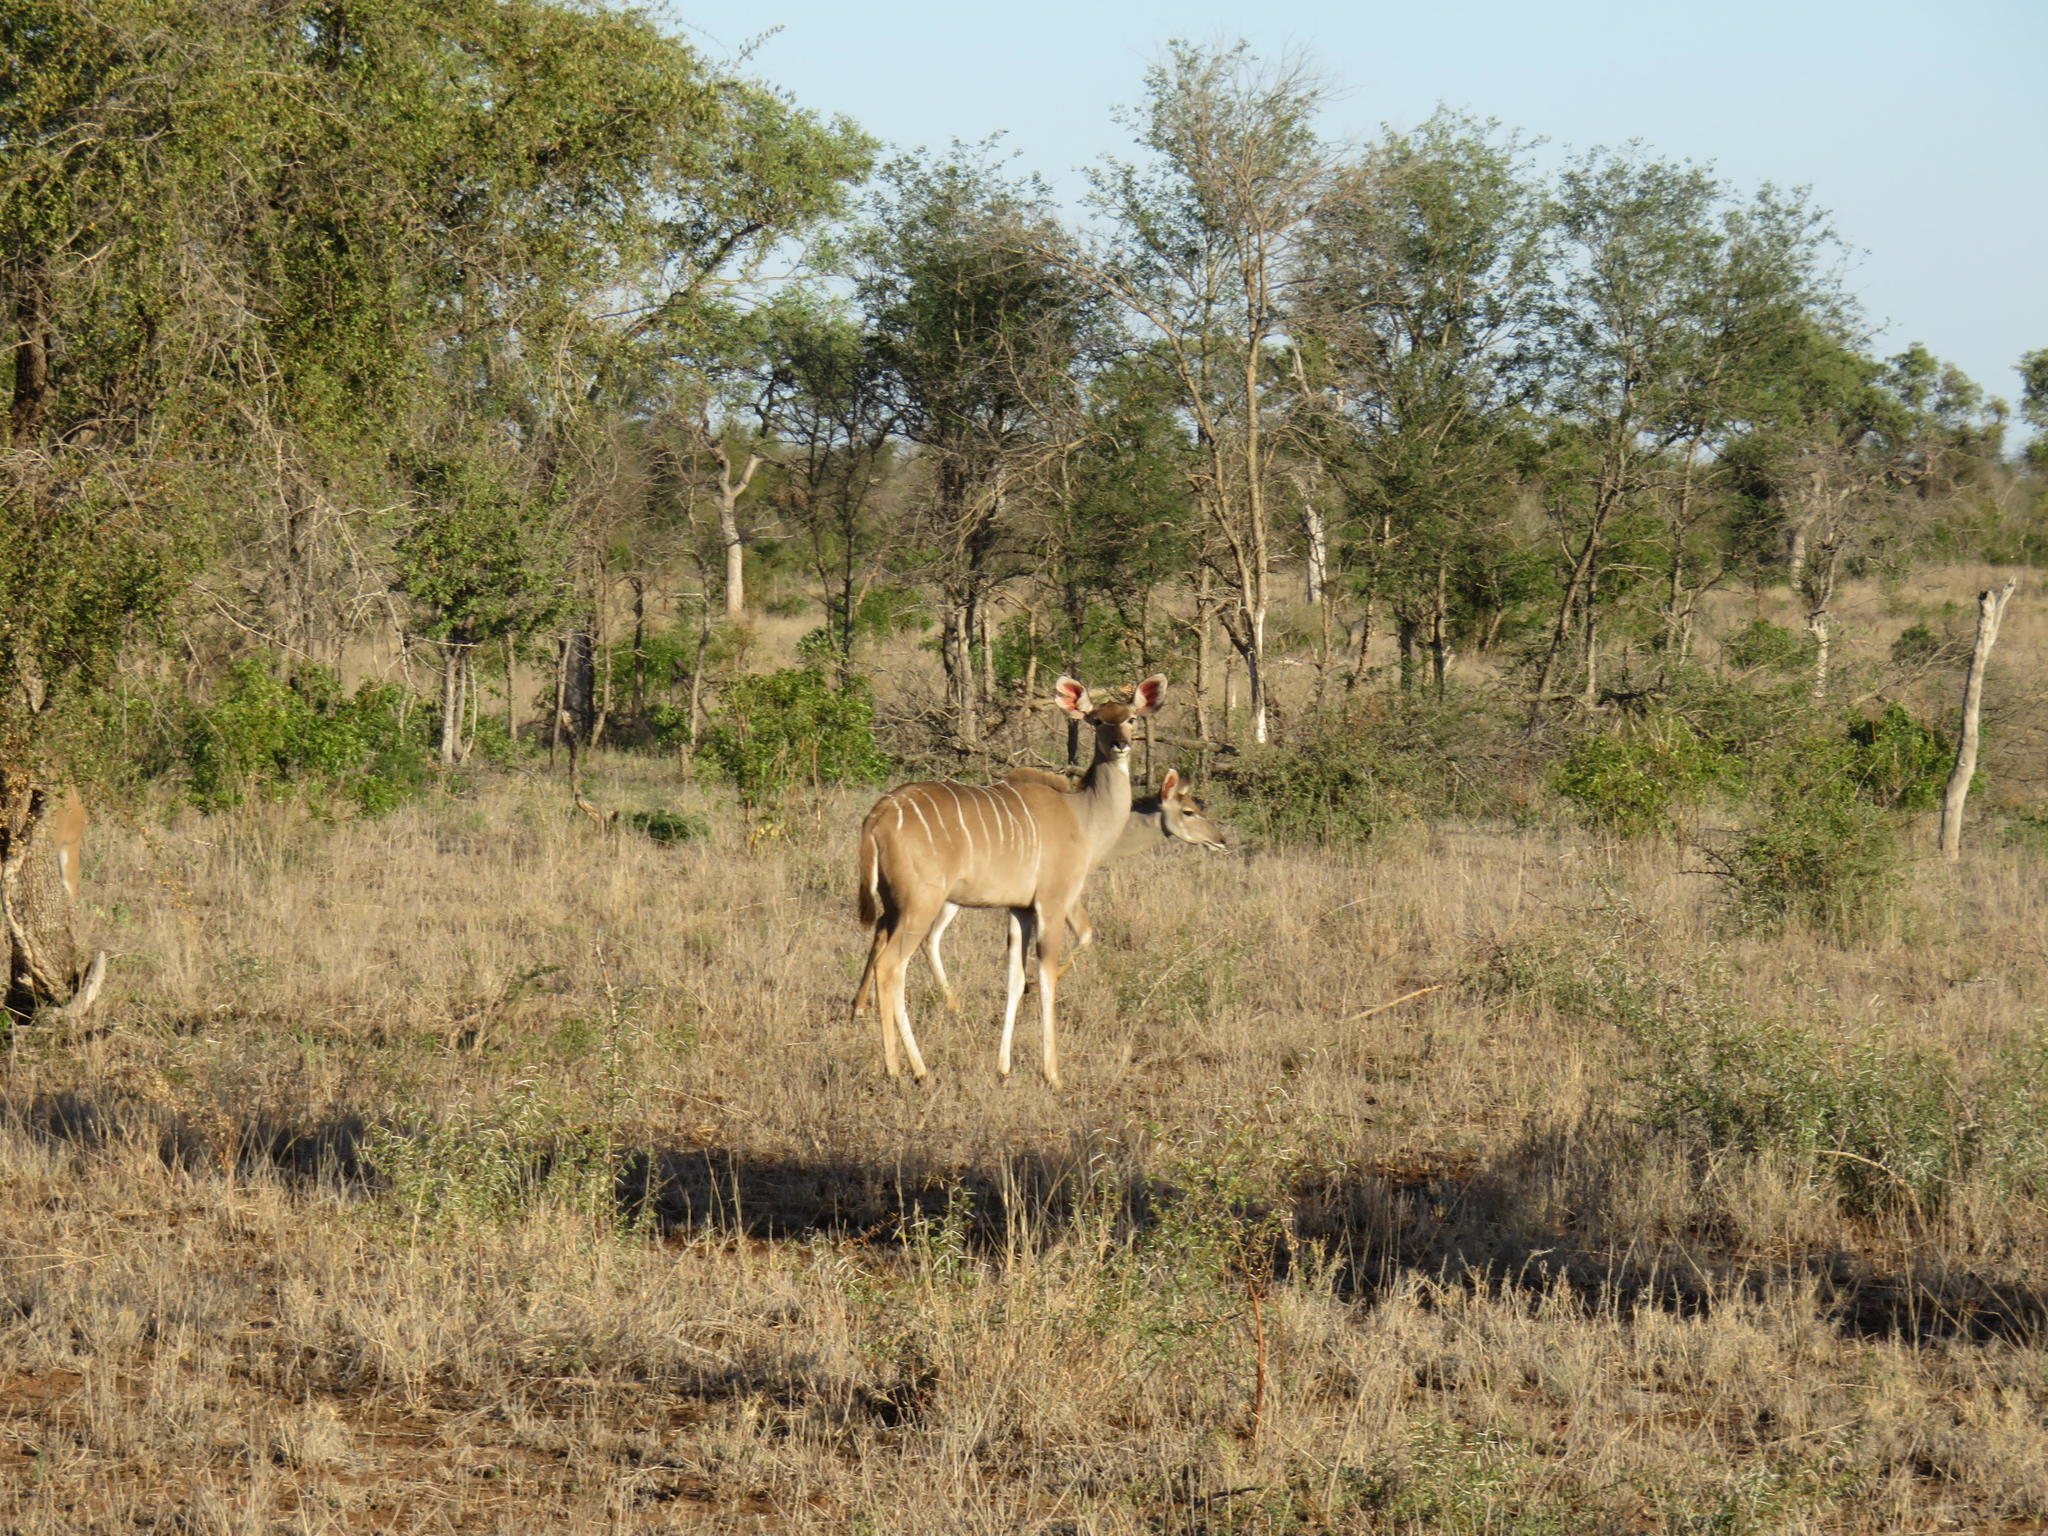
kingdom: Animalia
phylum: Chordata
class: Mammalia
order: Artiodactyla
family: Bovidae
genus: Tragelaphus
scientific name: Tragelaphus strepsiceros
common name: Greater kudu
